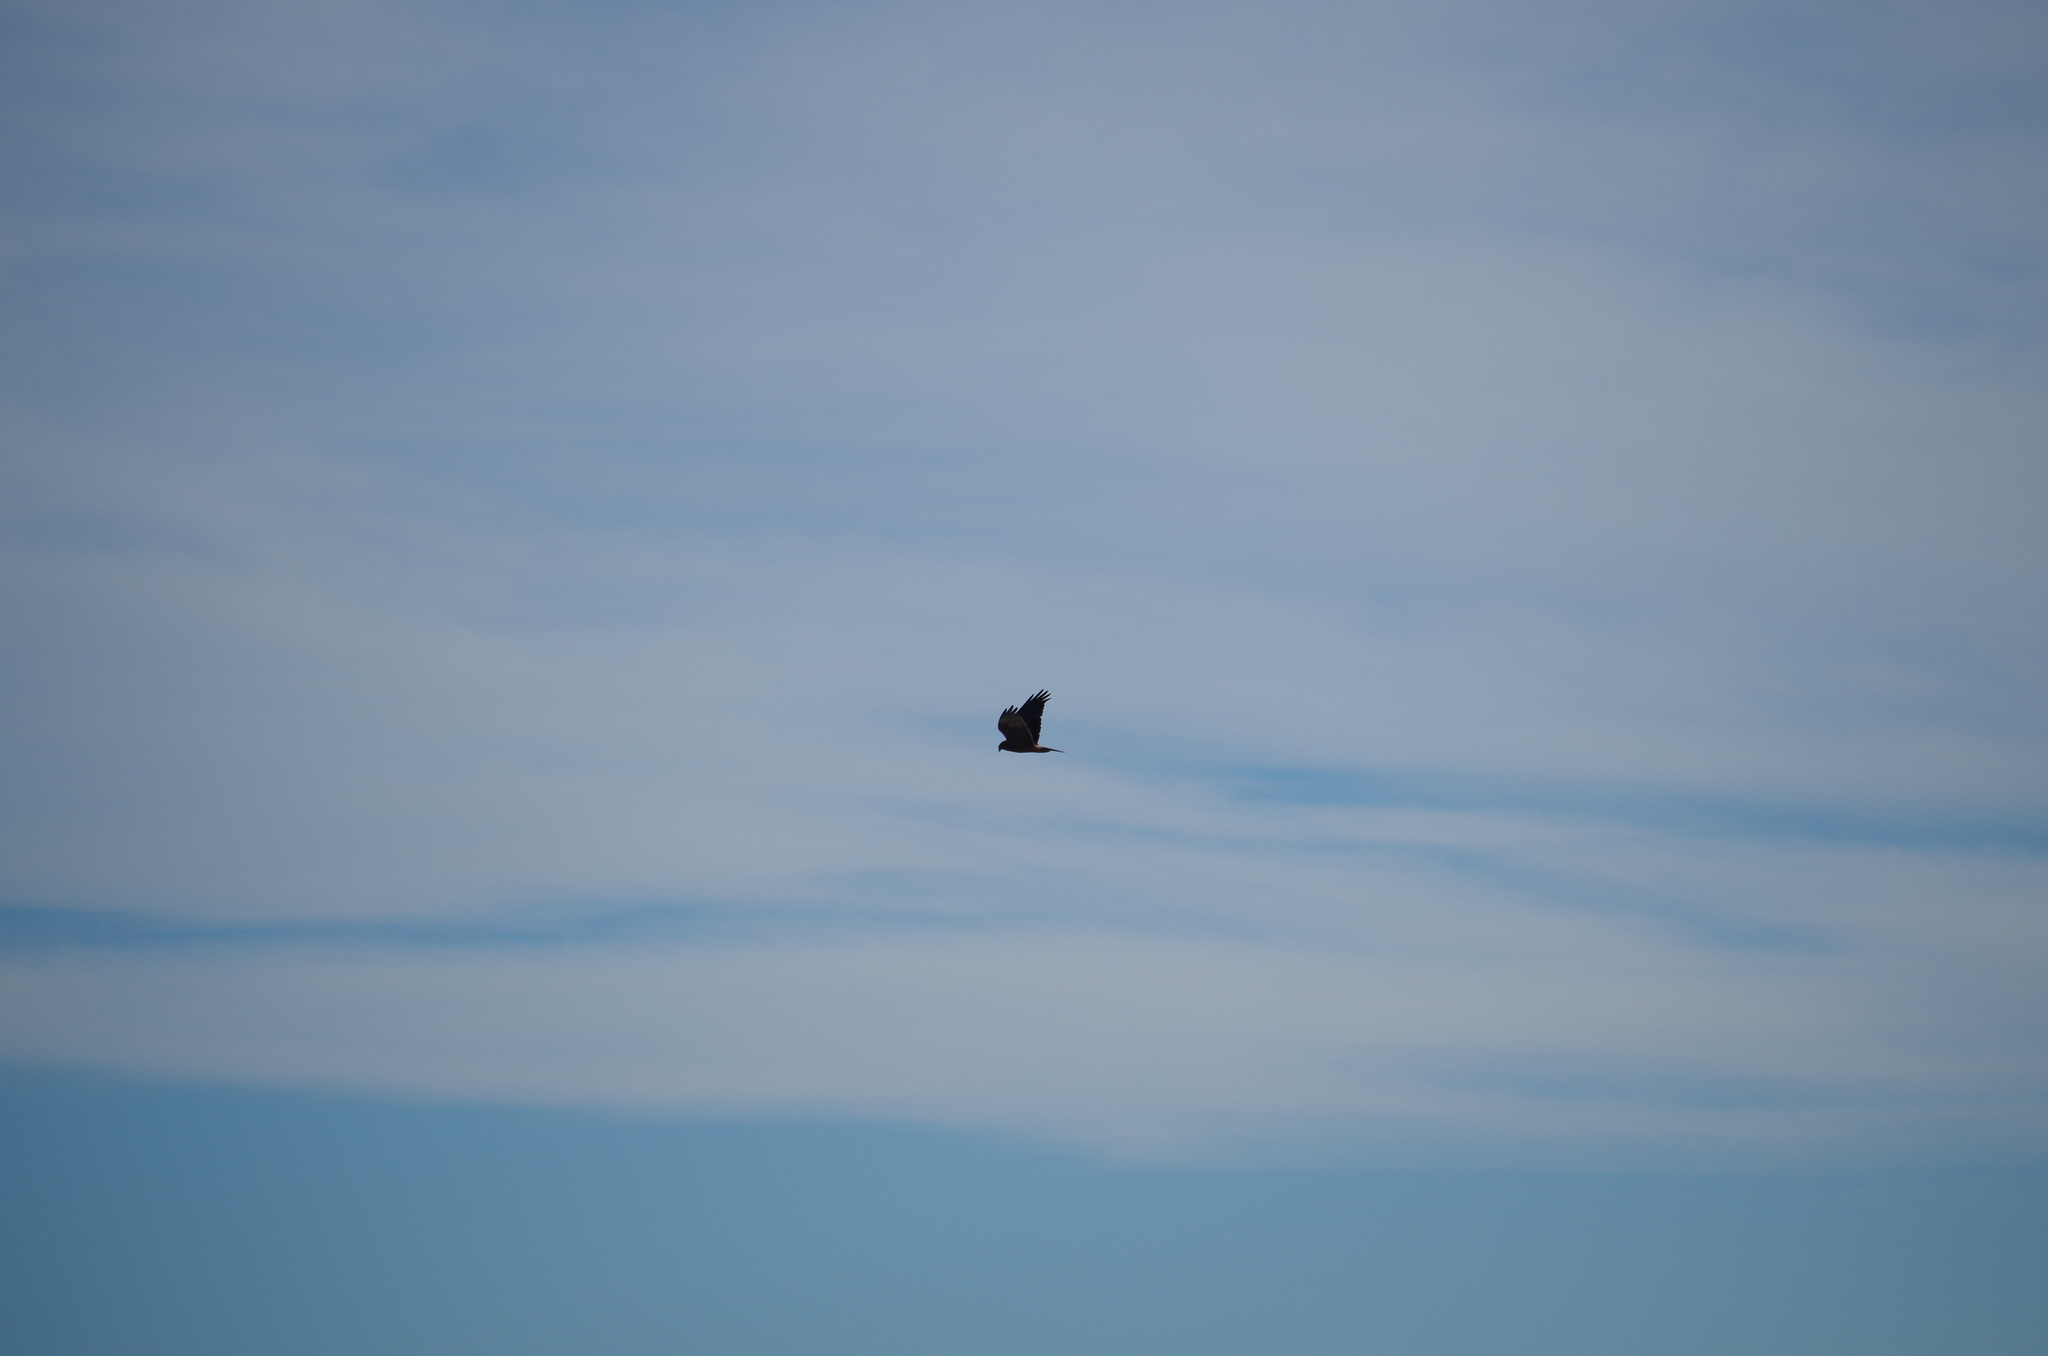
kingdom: Animalia
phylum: Chordata
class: Aves
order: Accipitriformes
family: Accipitridae
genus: Circus
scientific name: Circus approximans
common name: Swamp harrier
